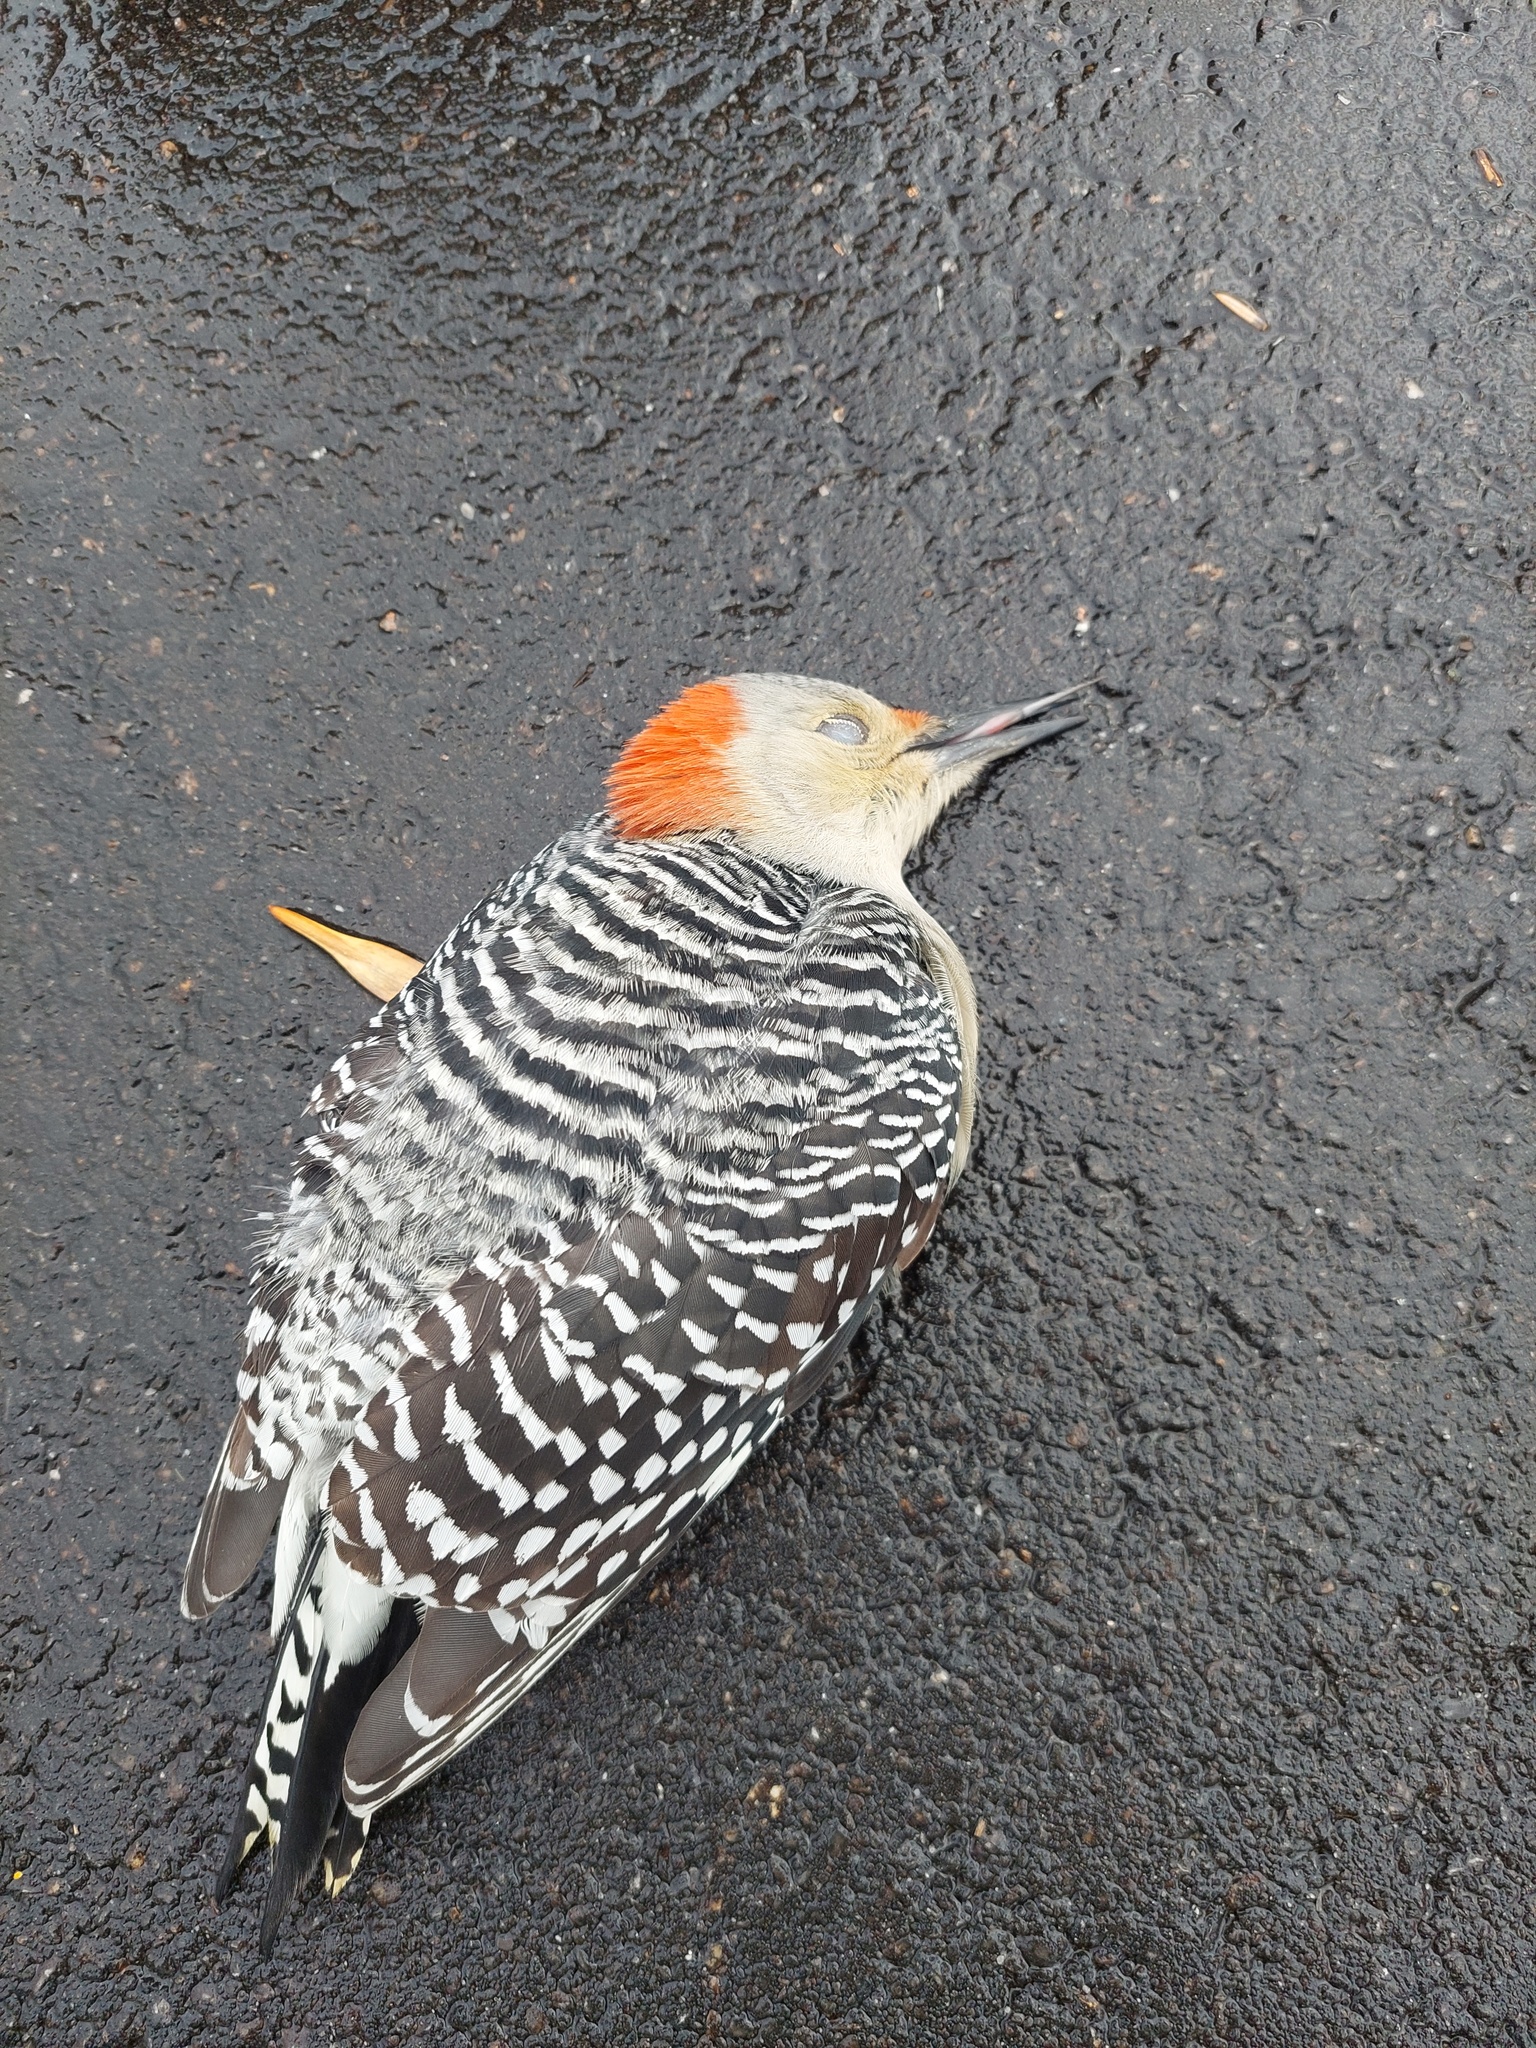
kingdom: Animalia
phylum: Chordata
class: Aves
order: Piciformes
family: Picidae
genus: Melanerpes
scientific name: Melanerpes carolinus
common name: Red-bellied woodpecker
